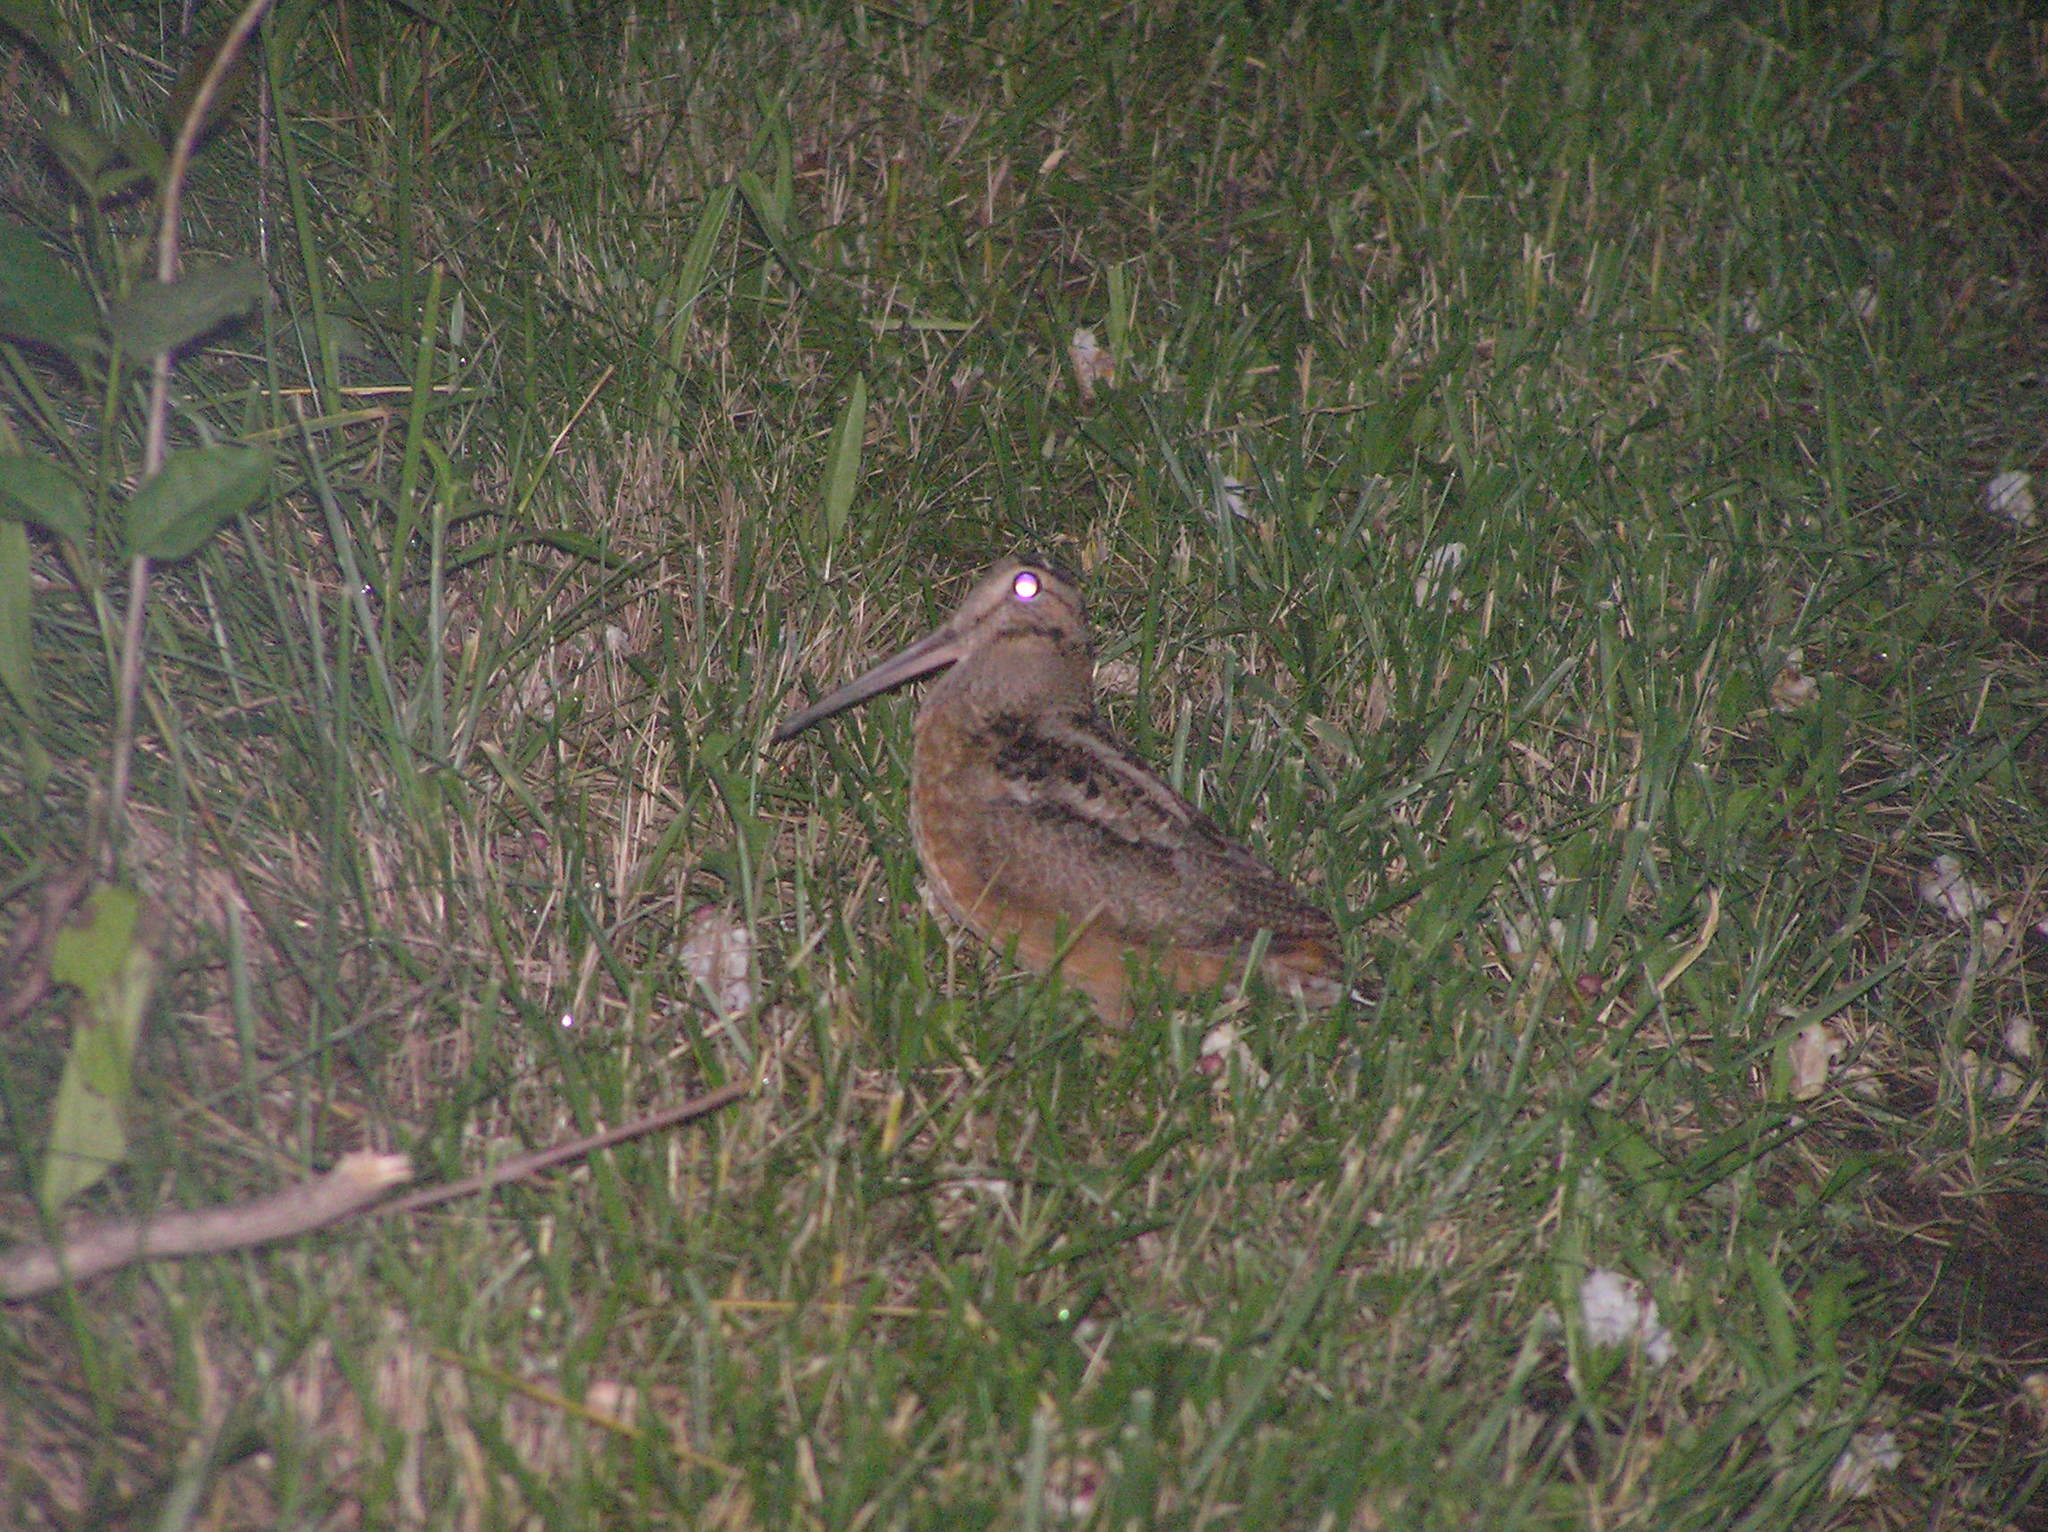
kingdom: Animalia
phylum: Chordata
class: Aves
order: Charadriiformes
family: Scolopacidae
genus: Scolopax
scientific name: Scolopax minor
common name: American woodcock
